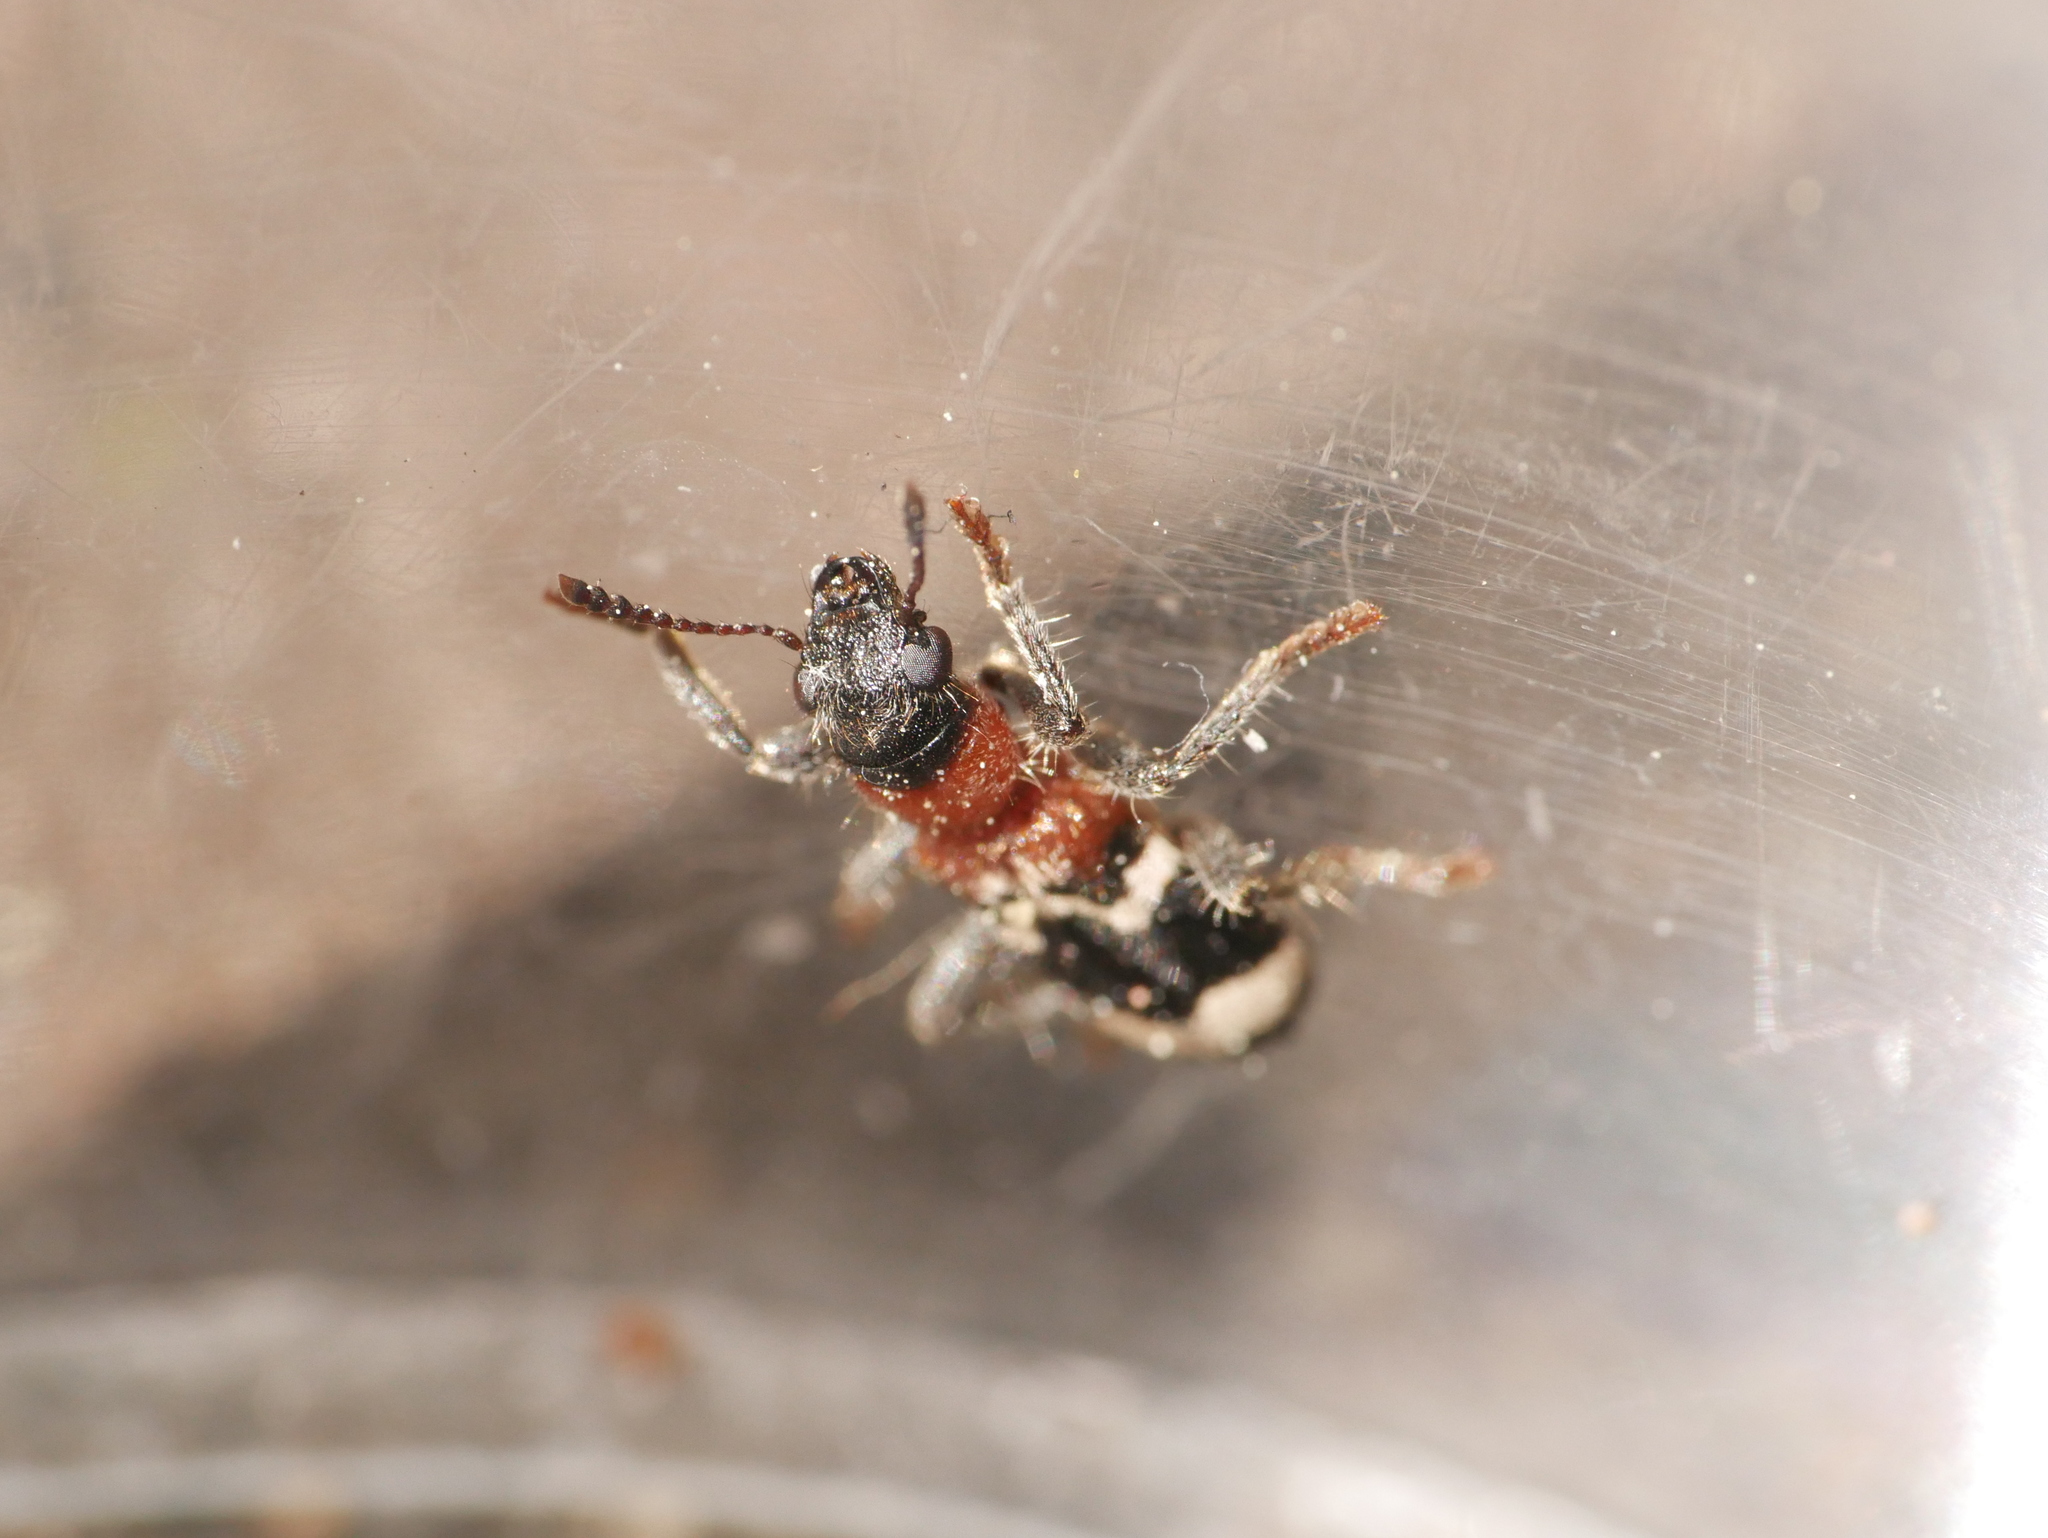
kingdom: Animalia
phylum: Arthropoda
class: Insecta
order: Coleoptera
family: Cleridae
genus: Thanasimus
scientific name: Thanasimus formicarius
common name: Ant beetle
